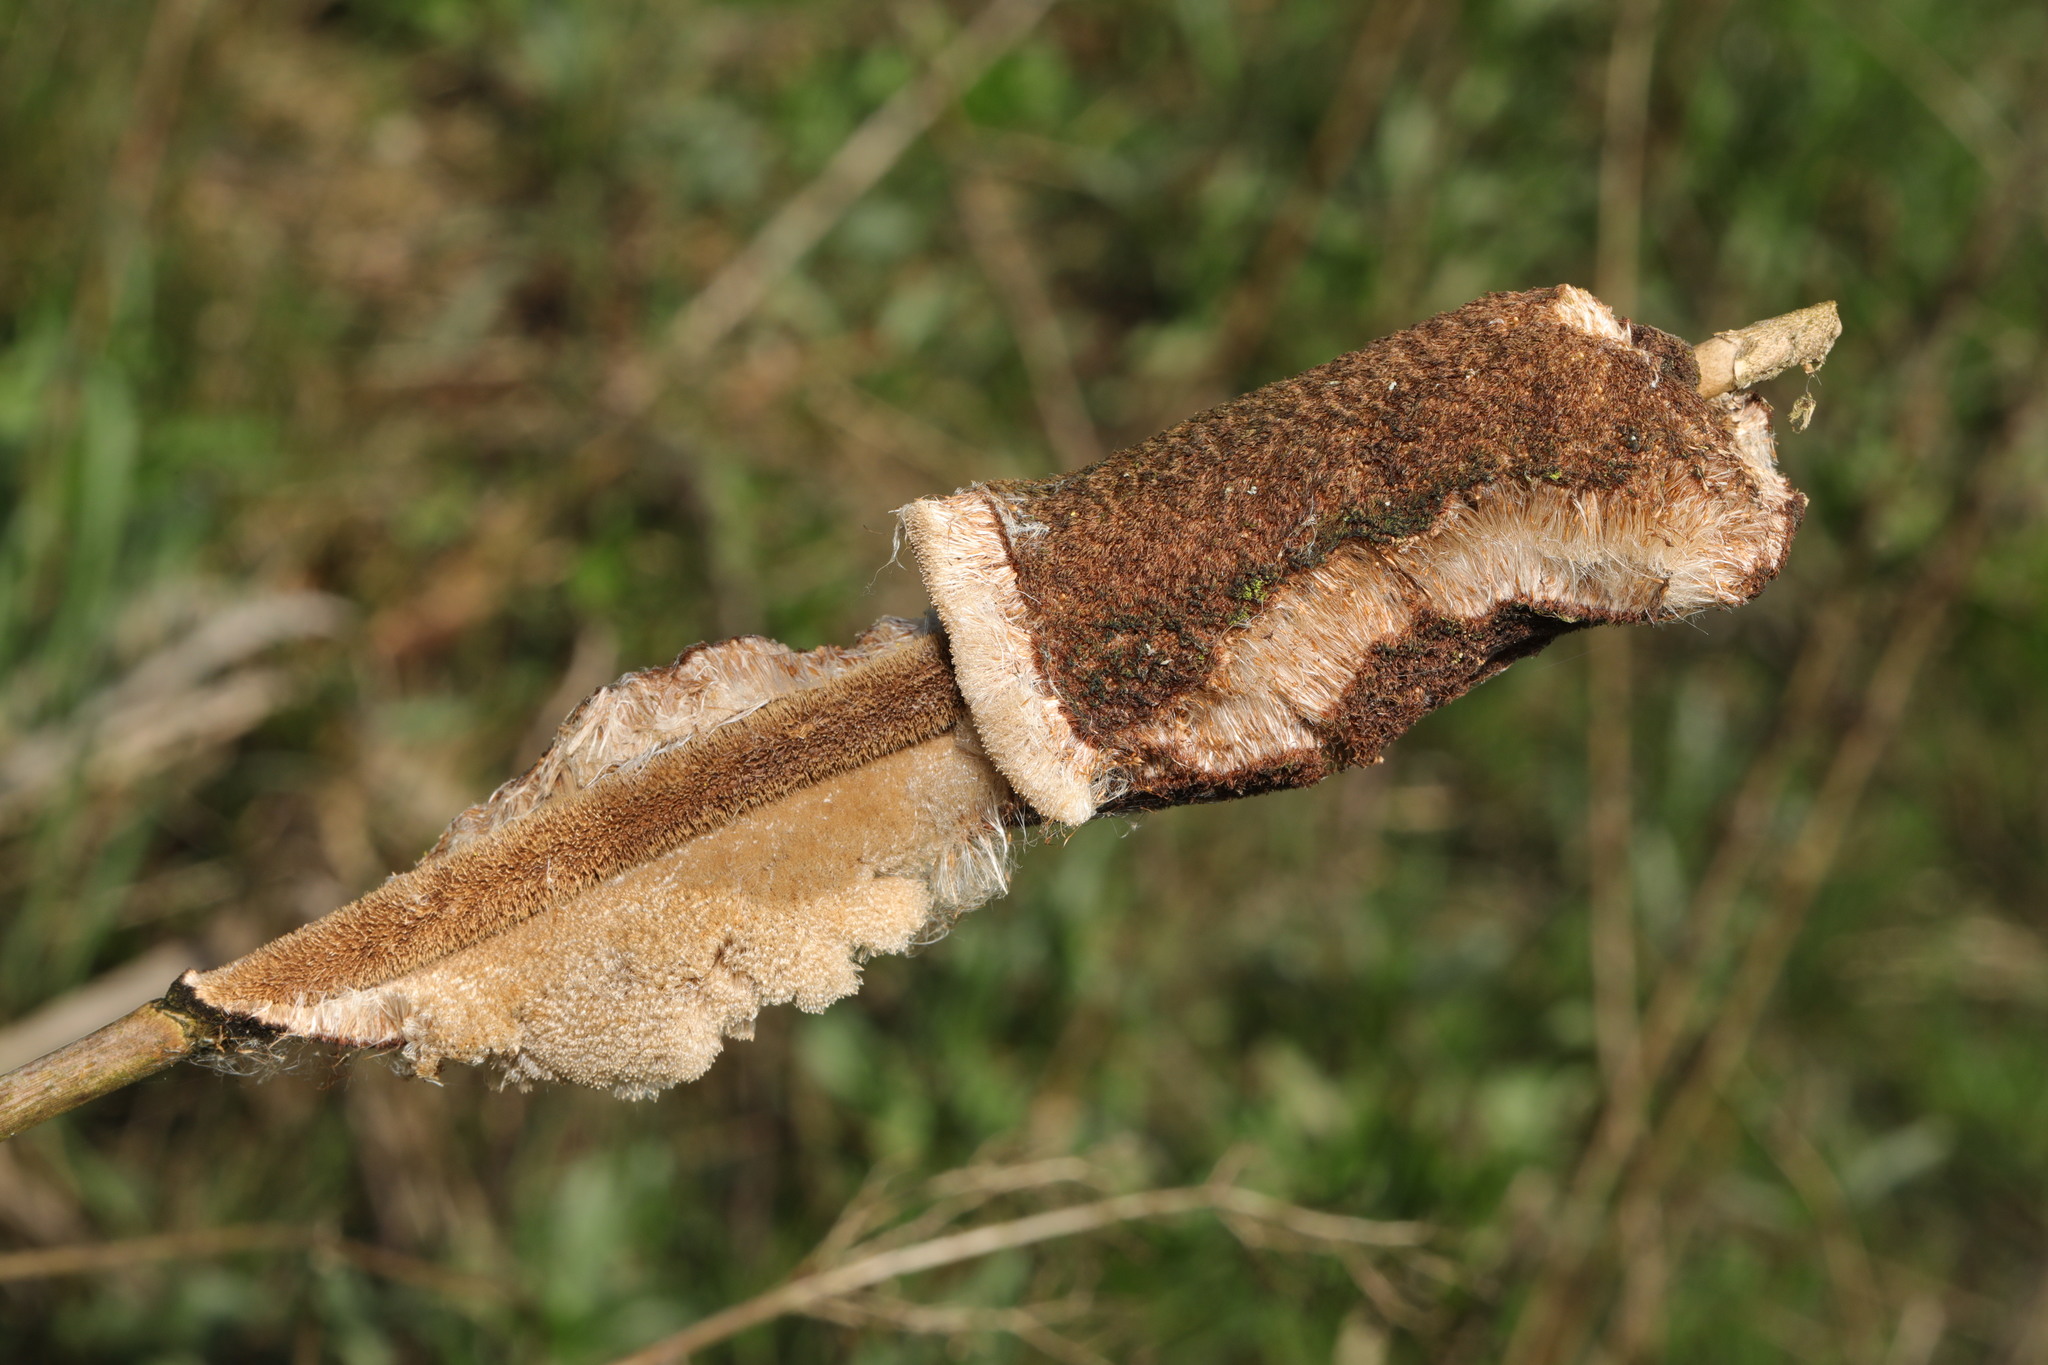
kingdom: Plantae
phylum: Tracheophyta
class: Liliopsida
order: Poales
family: Typhaceae
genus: Typha
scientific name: Typha latifolia
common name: Broadleaf cattail
